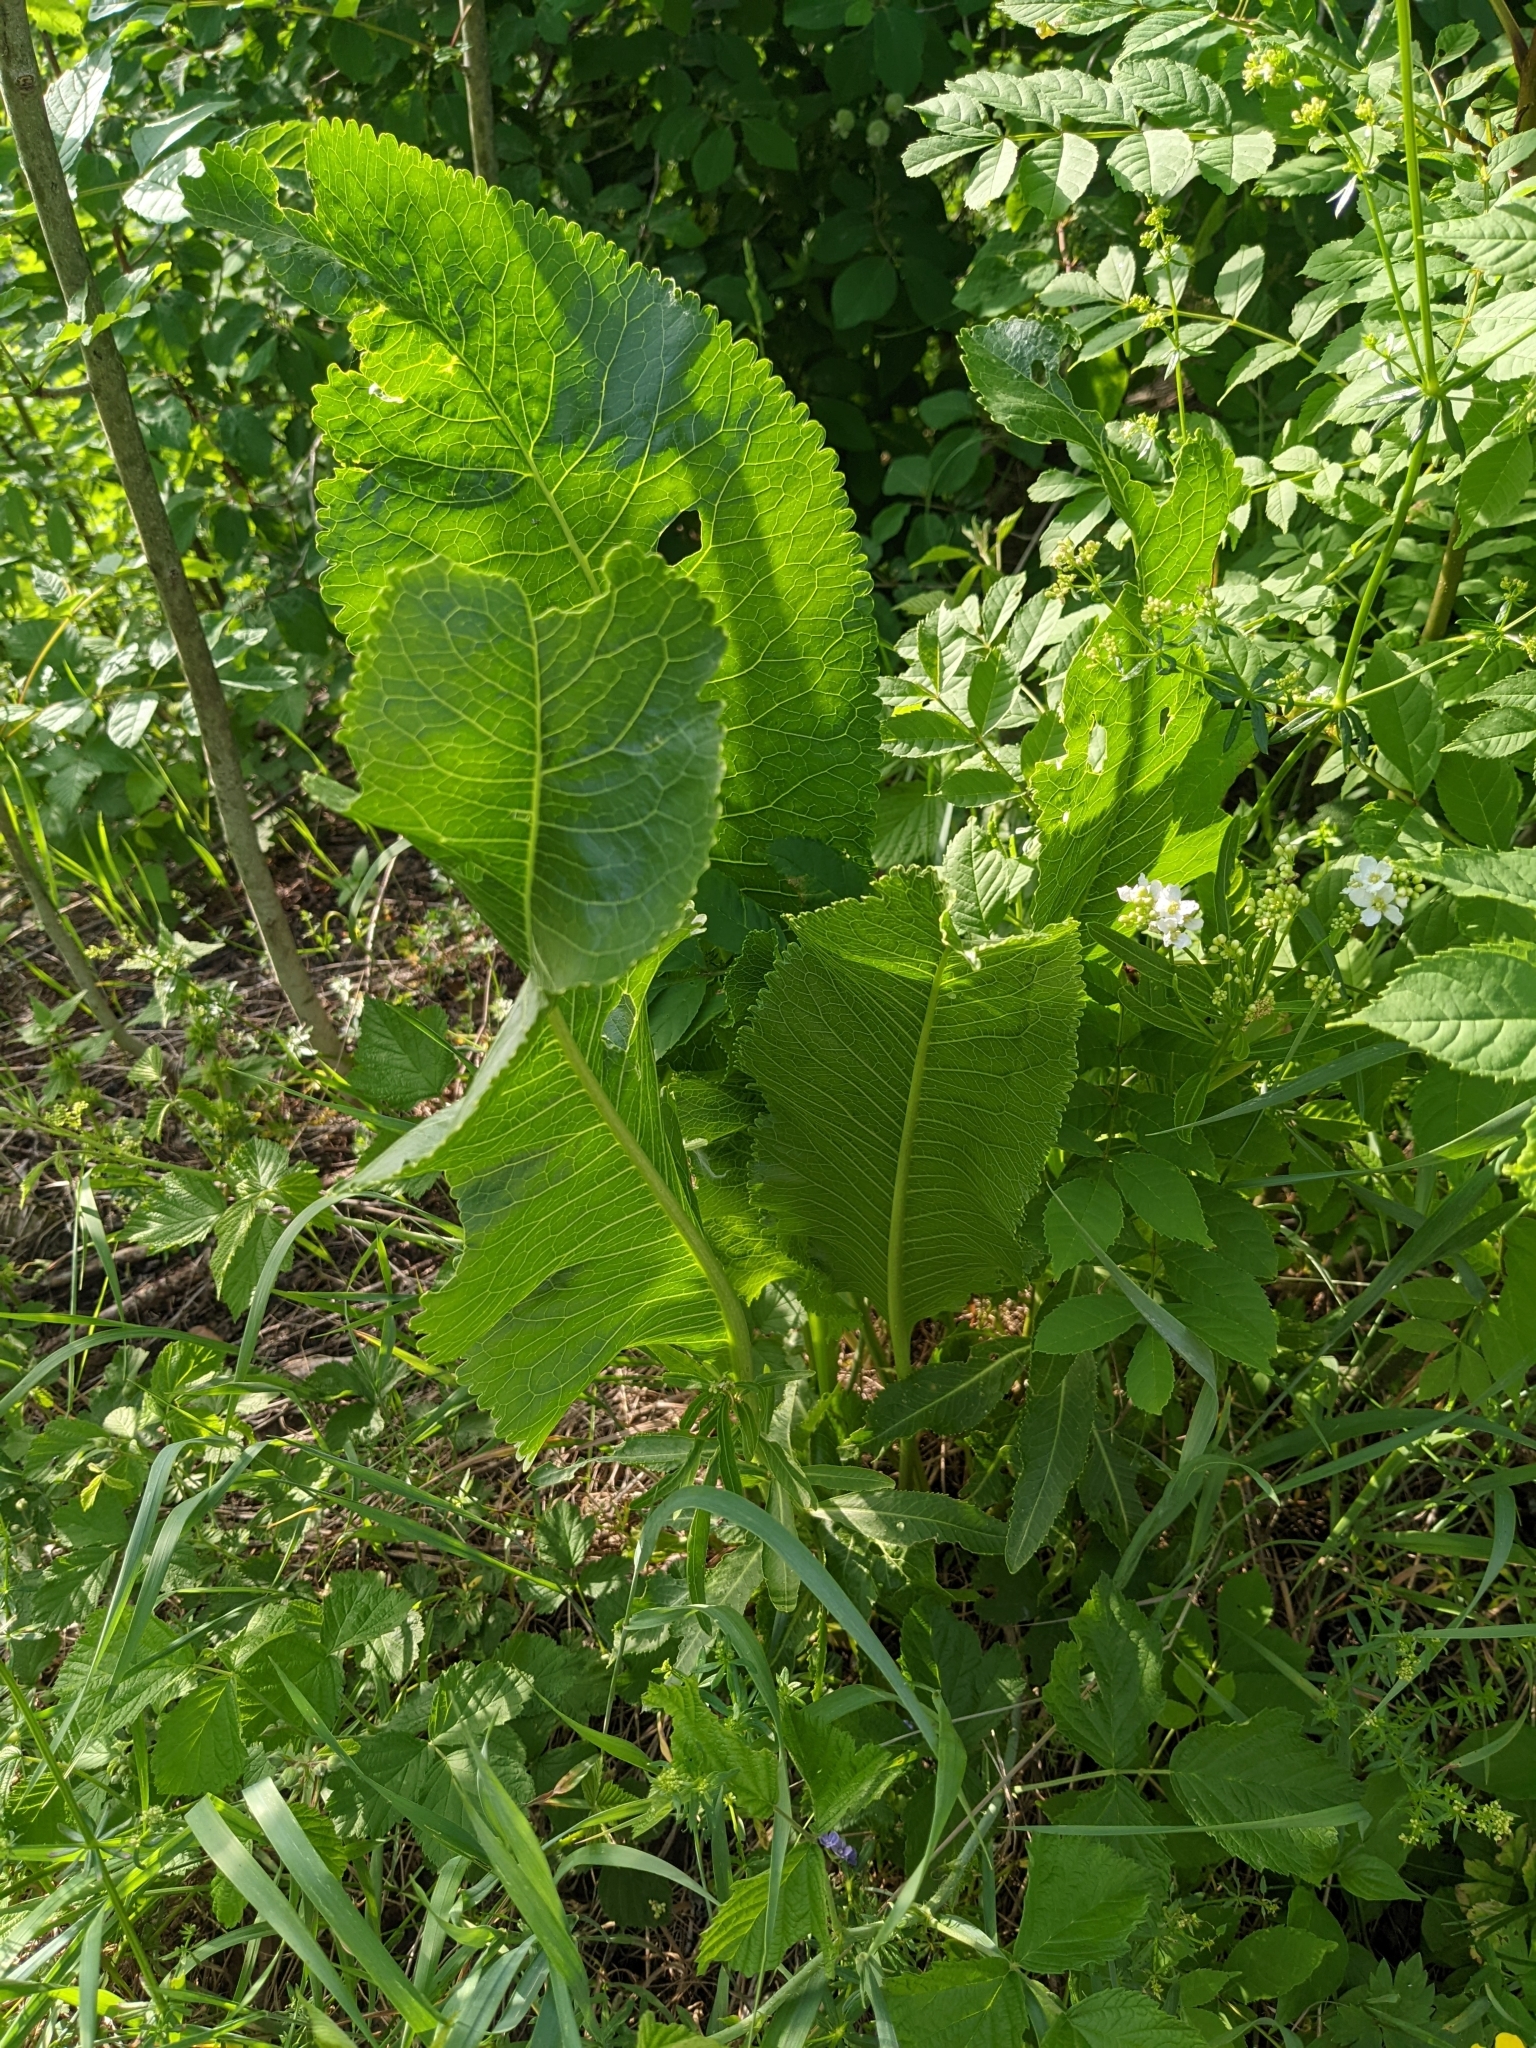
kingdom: Plantae
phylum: Tracheophyta
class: Magnoliopsida
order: Brassicales
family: Brassicaceae
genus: Armoracia
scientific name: Armoracia rusticana
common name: Horseradish
